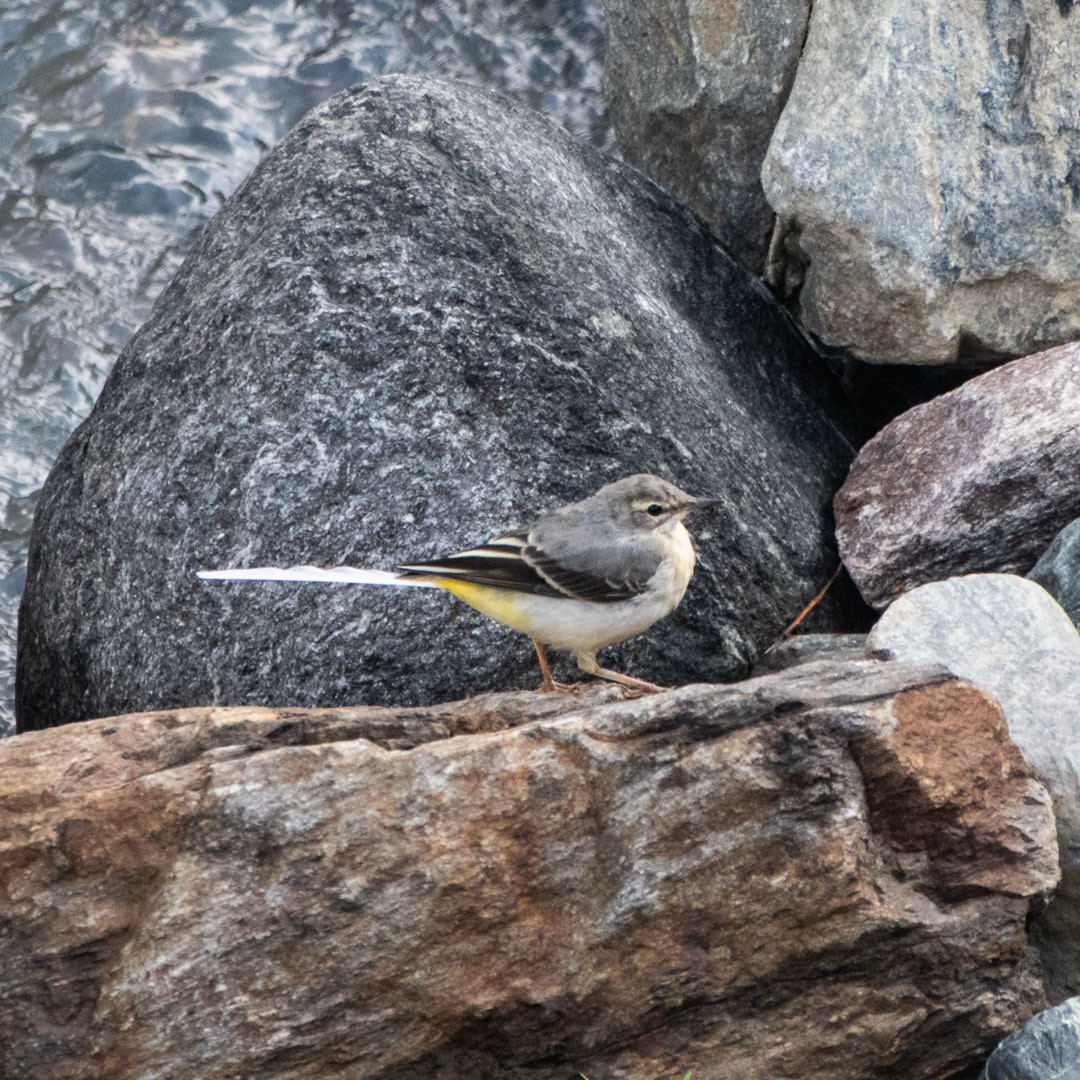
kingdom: Animalia
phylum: Chordata
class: Aves
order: Passeriformes
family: Motacillidae
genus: Motacilla
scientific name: Motacilla cinerea
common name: Grey wagtail
